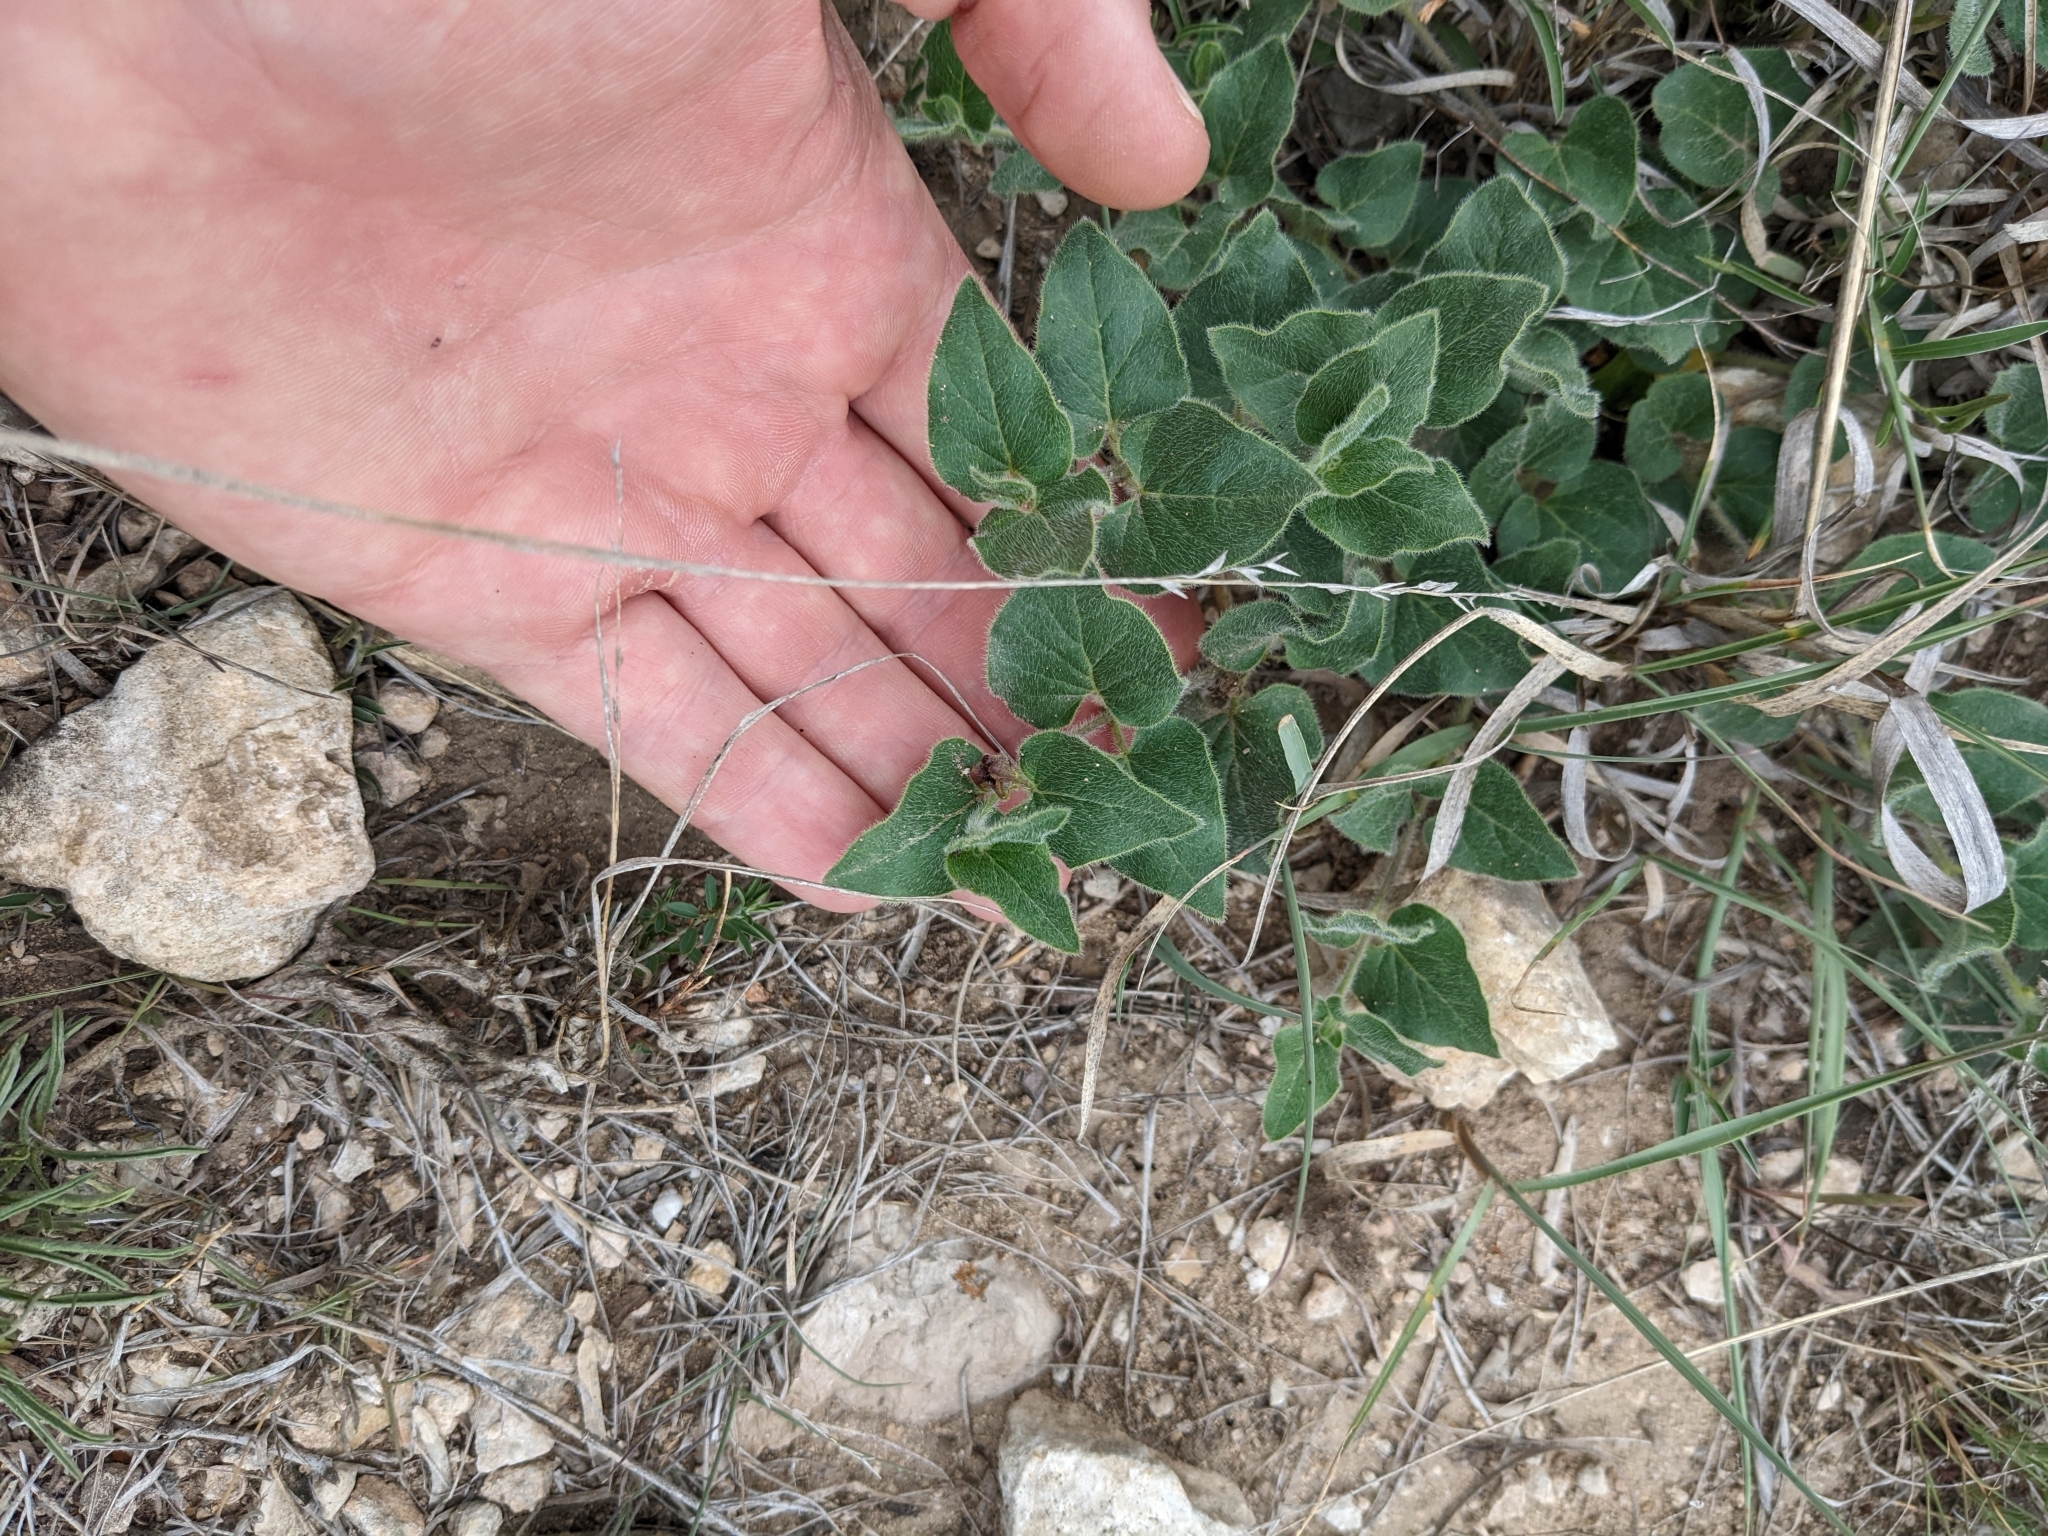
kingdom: Plantae
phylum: Tracheophyta
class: Magnoliopsida
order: Gentianales
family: Apocynaceae
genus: Chthamalia
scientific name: Chthamalia biflora
